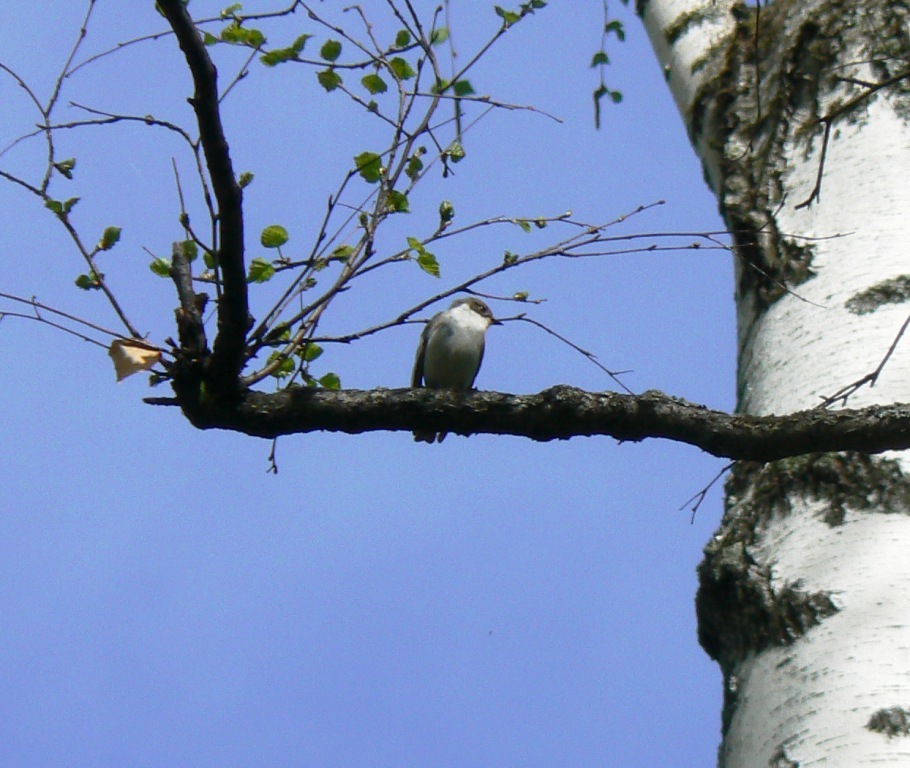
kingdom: Animalia
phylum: Chordata
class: Aves
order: Passeriformes
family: Muscicapidae
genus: Ficedula
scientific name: Ficedula hypoleuca
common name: European pied flycatcher
